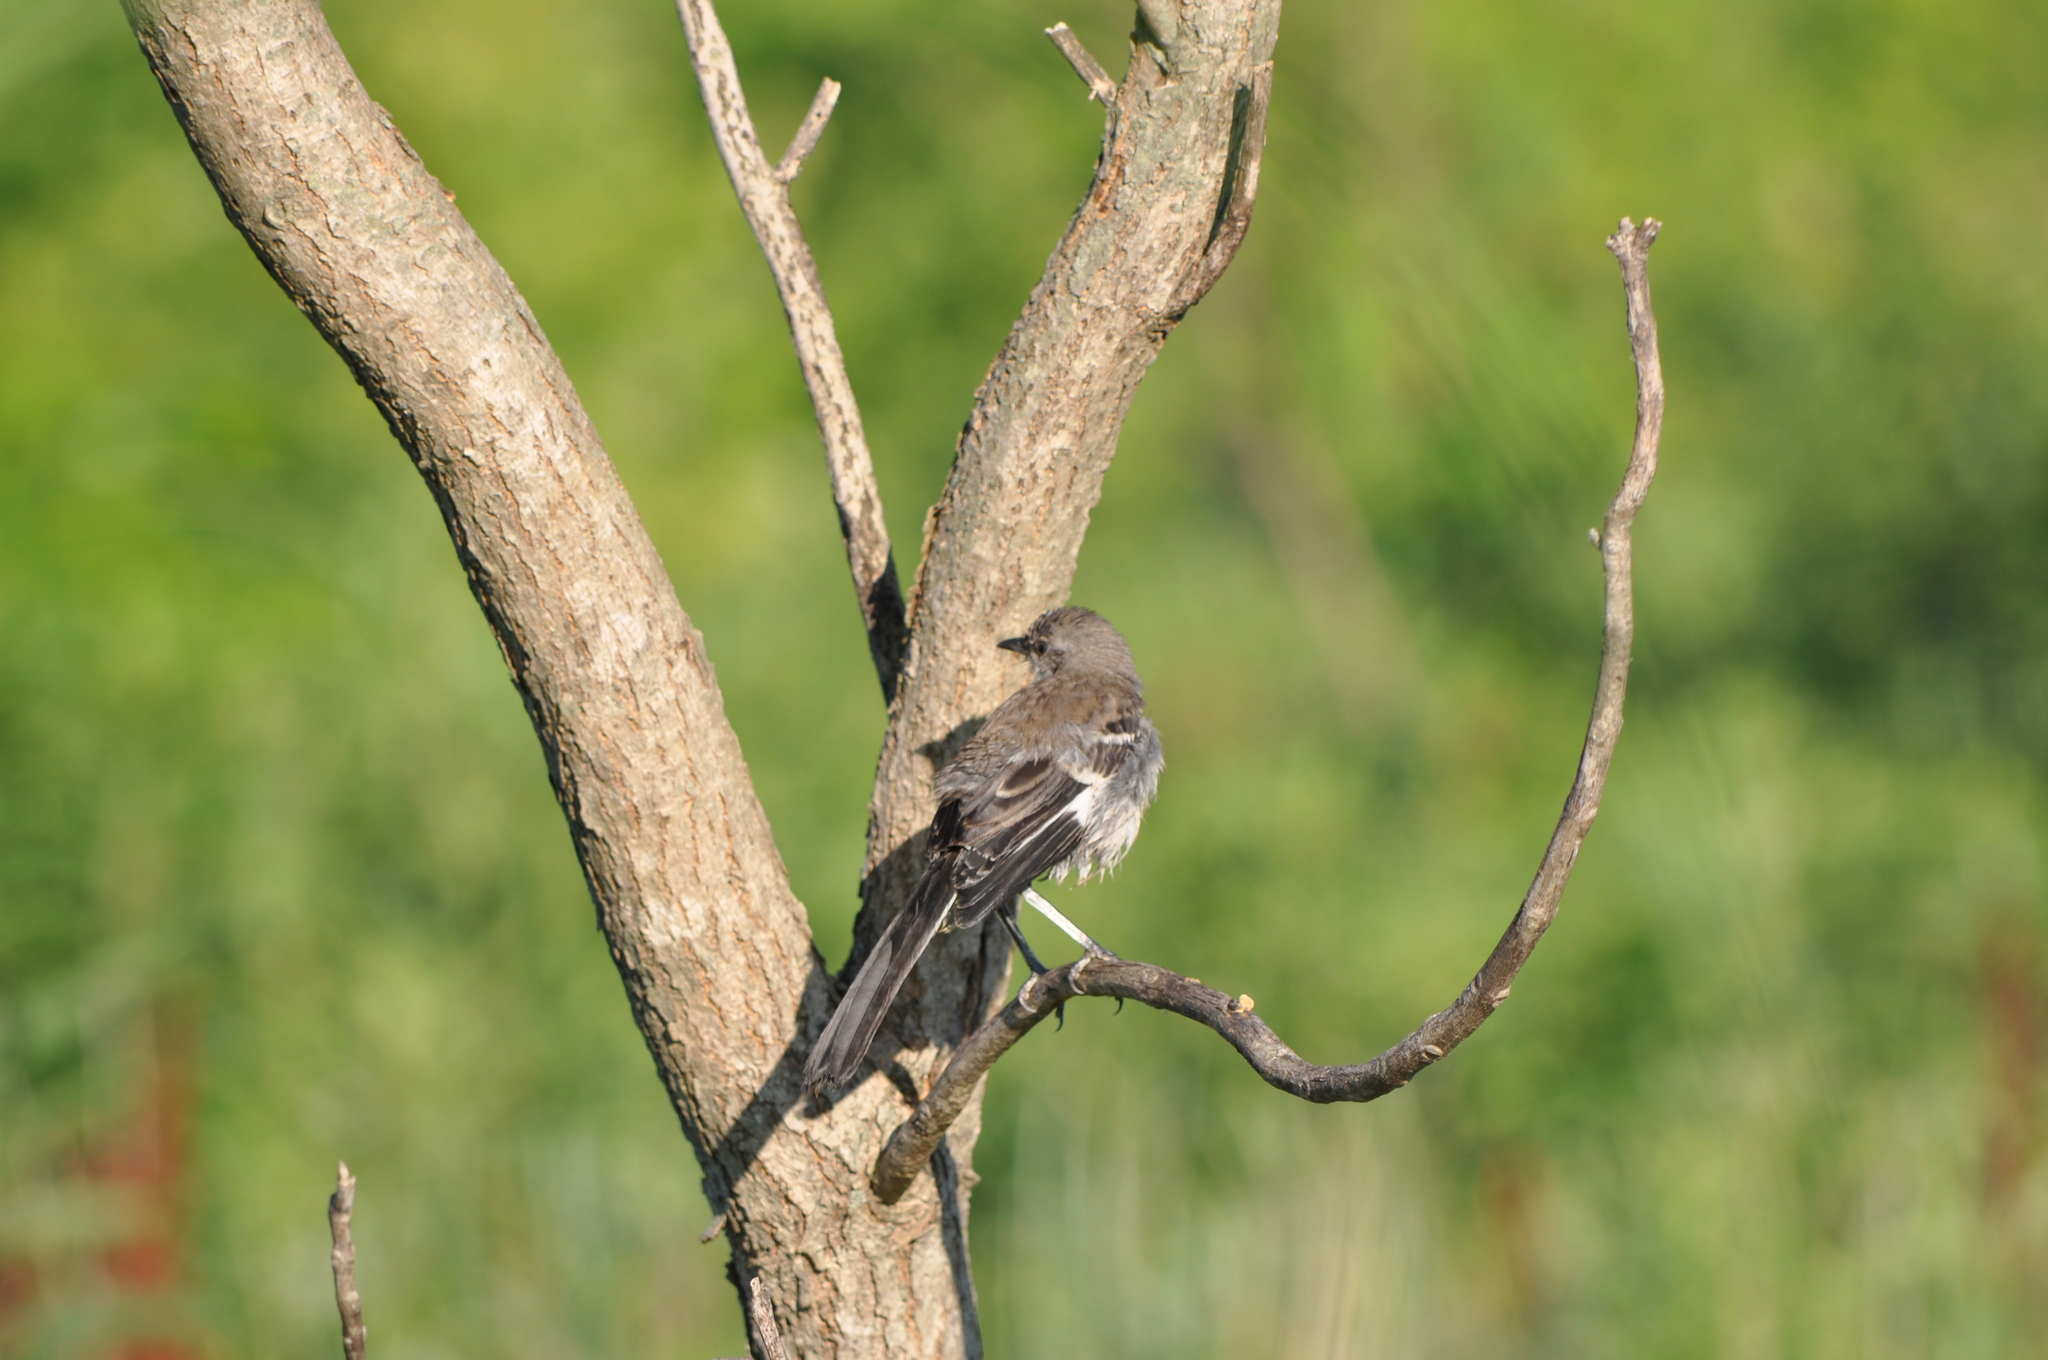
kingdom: Animalia
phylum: Chordata
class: Aves
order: Passeriformes
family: Mimidae
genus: Mimus
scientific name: Mimus polyglottos
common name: Northern mockingbird
